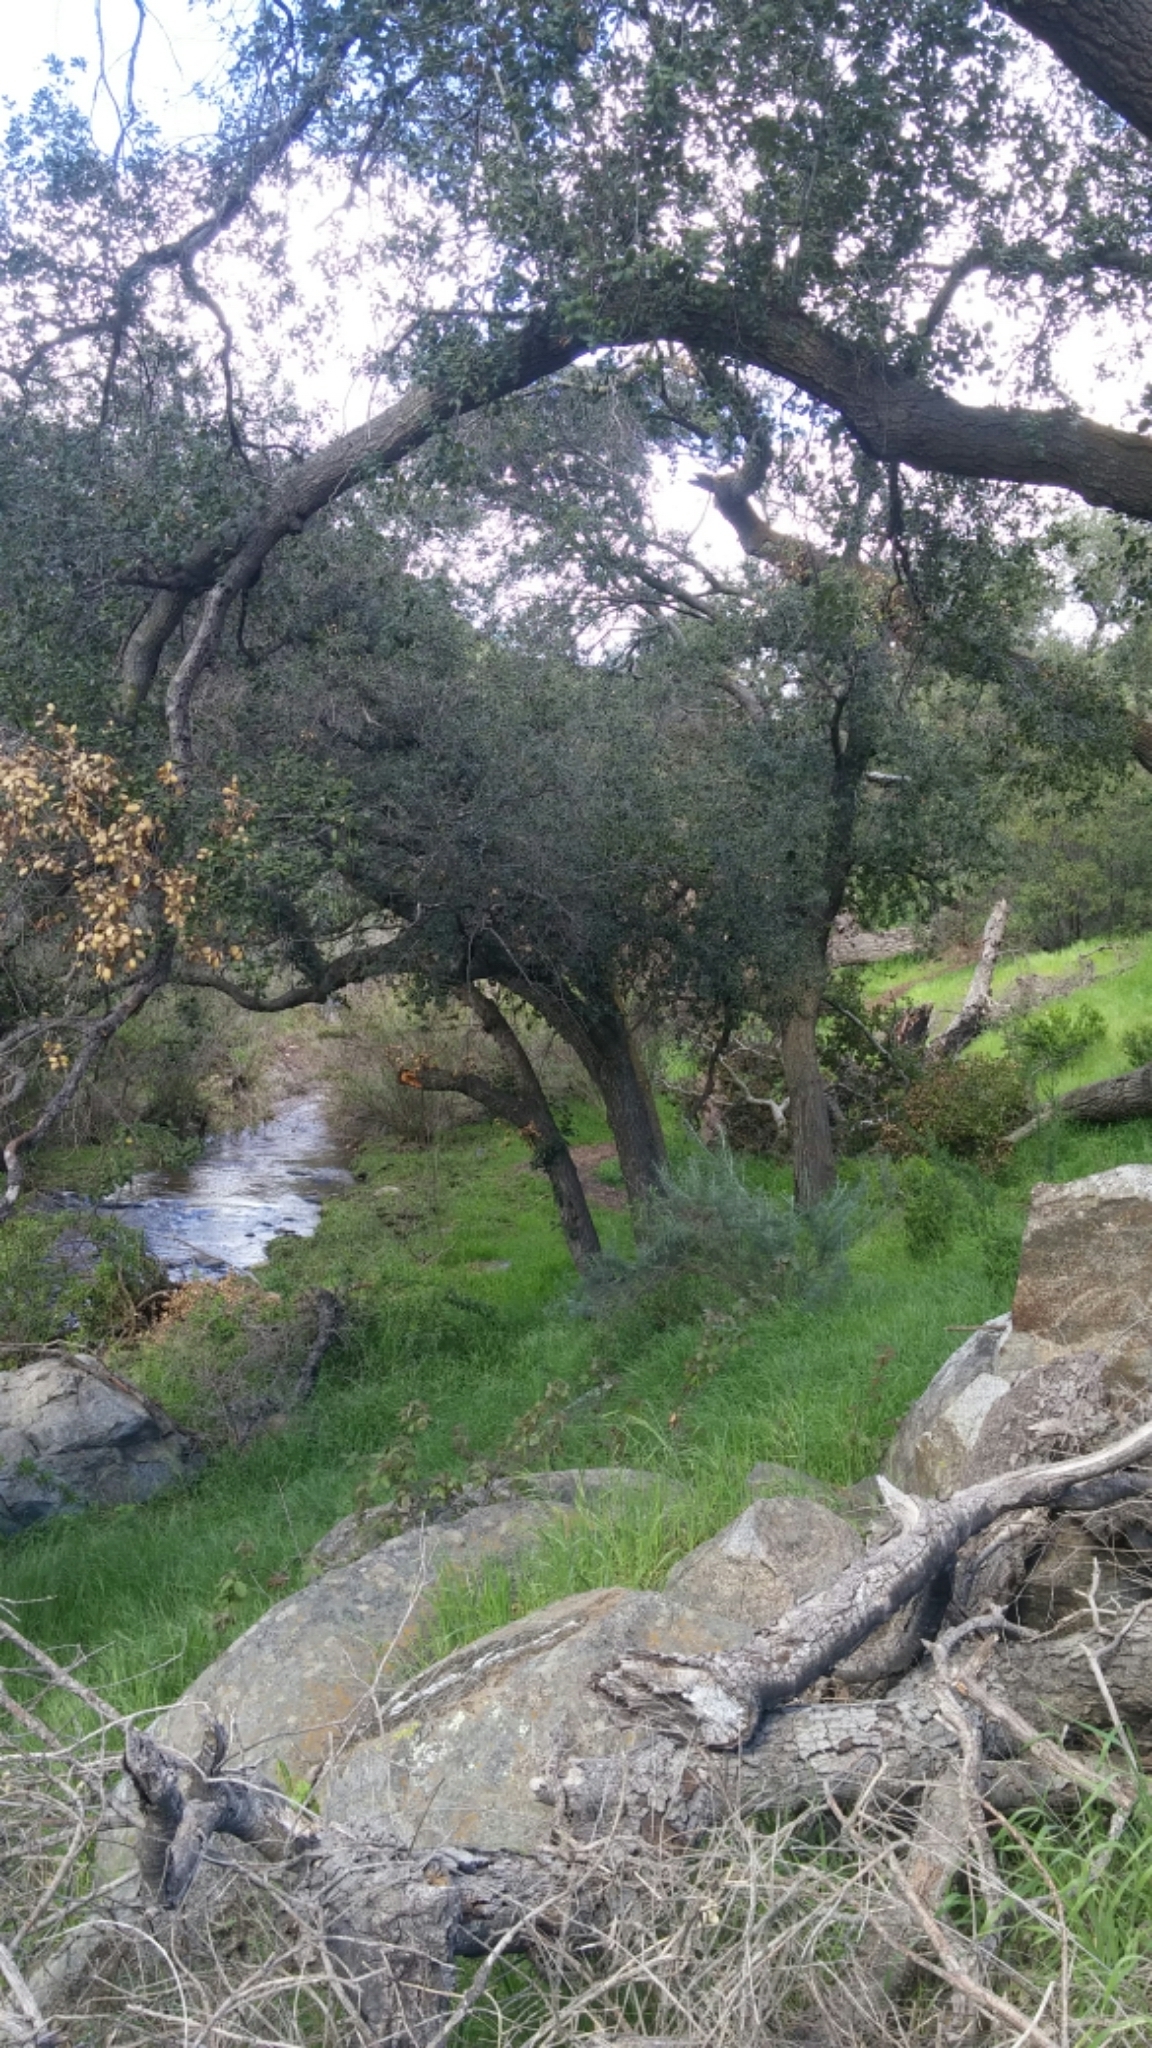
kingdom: Plantae
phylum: Tracheophyta
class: Magnoliopsida
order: Fagales
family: Fagaceae
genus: Quercus
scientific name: Quercus agrifolia
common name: California live oak
